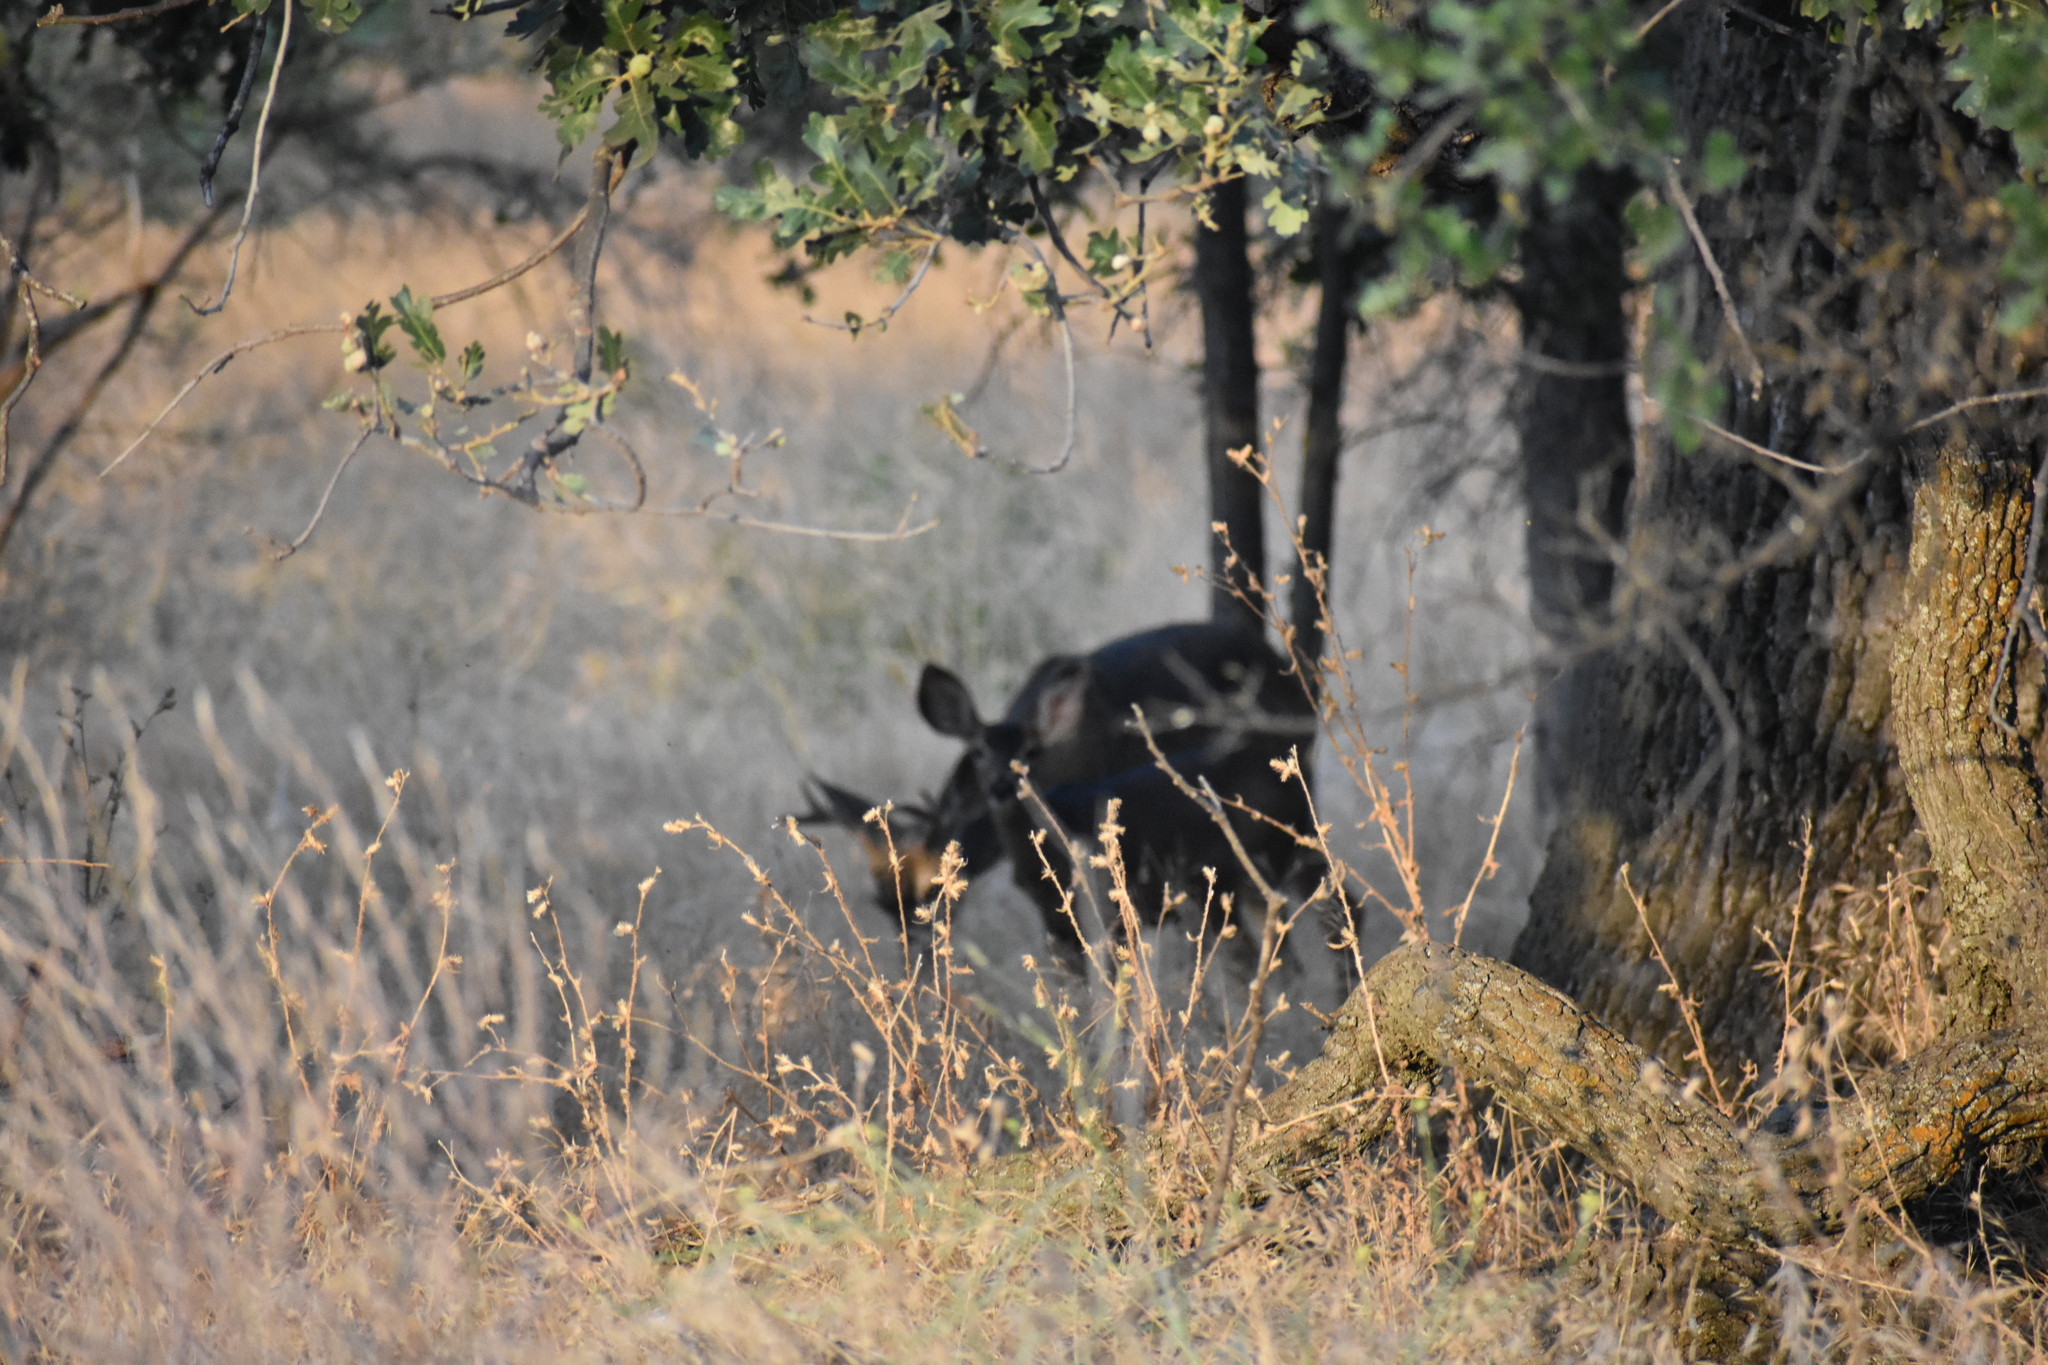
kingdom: Animalia
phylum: Chordata
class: Mammalia
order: Artiodactyla
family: Cervidae
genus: Odocoileus
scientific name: Odocoileus hemionus
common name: Mule deer
